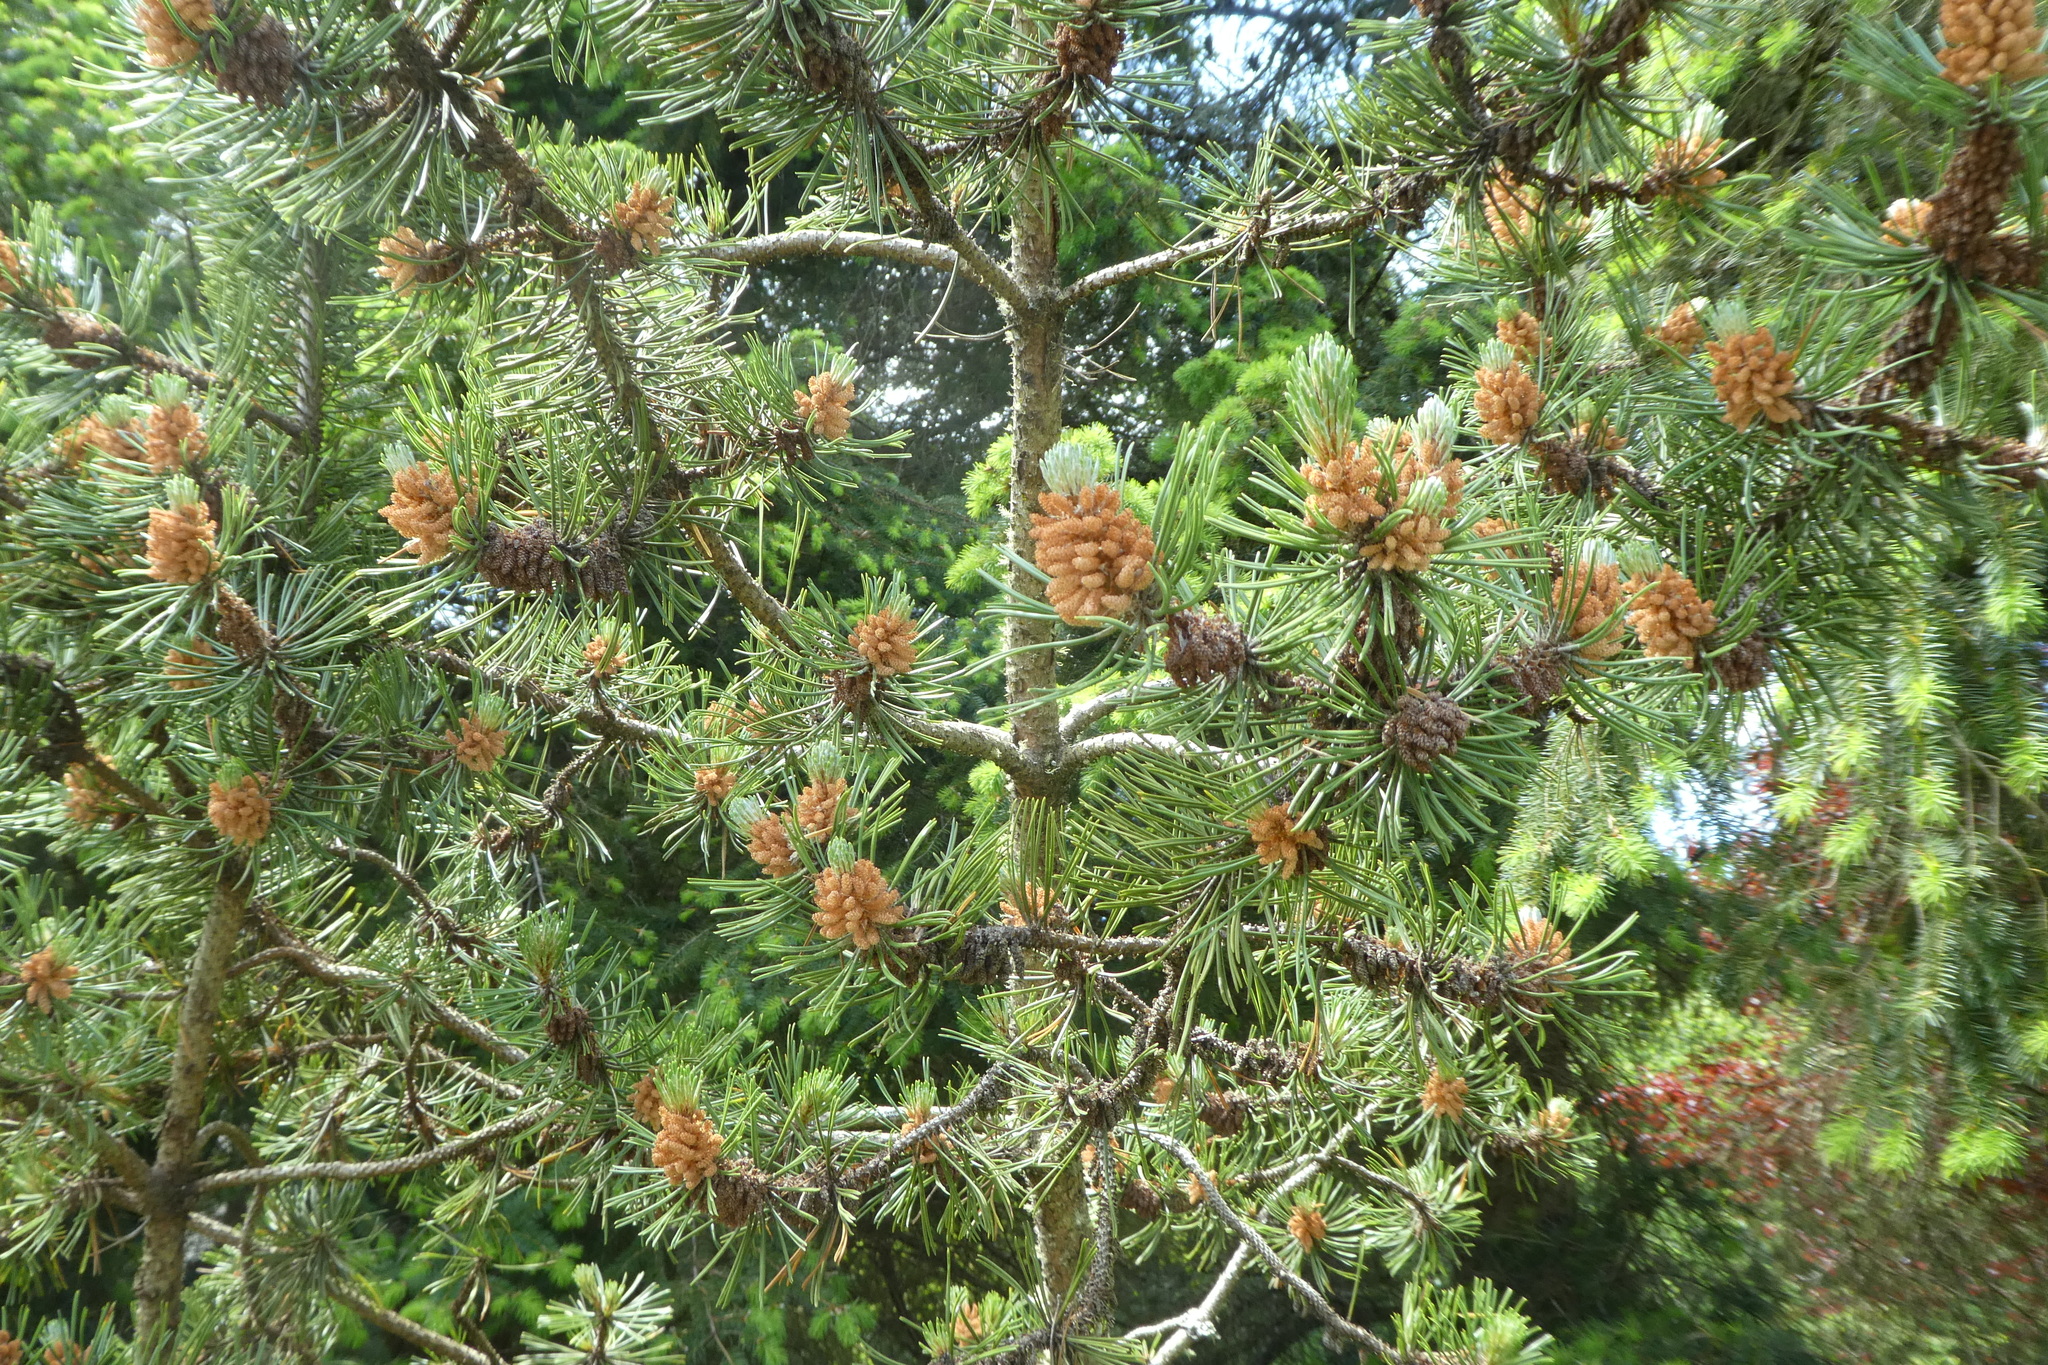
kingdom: Plantae
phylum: Tracheophyta
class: Pinopsida
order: Pinales
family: Pinaceae
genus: Pinus
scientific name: Pinus contorta
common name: Lodgepole pine
